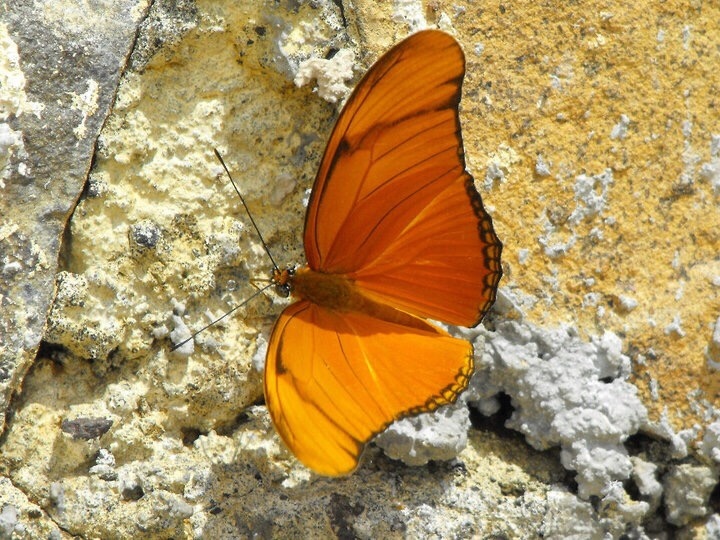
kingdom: Animalia
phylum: Arthropoda
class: Insecta
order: Lepidoptera
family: Nymphalidae
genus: Dryas
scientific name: Dryas iulia
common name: Flambeau
